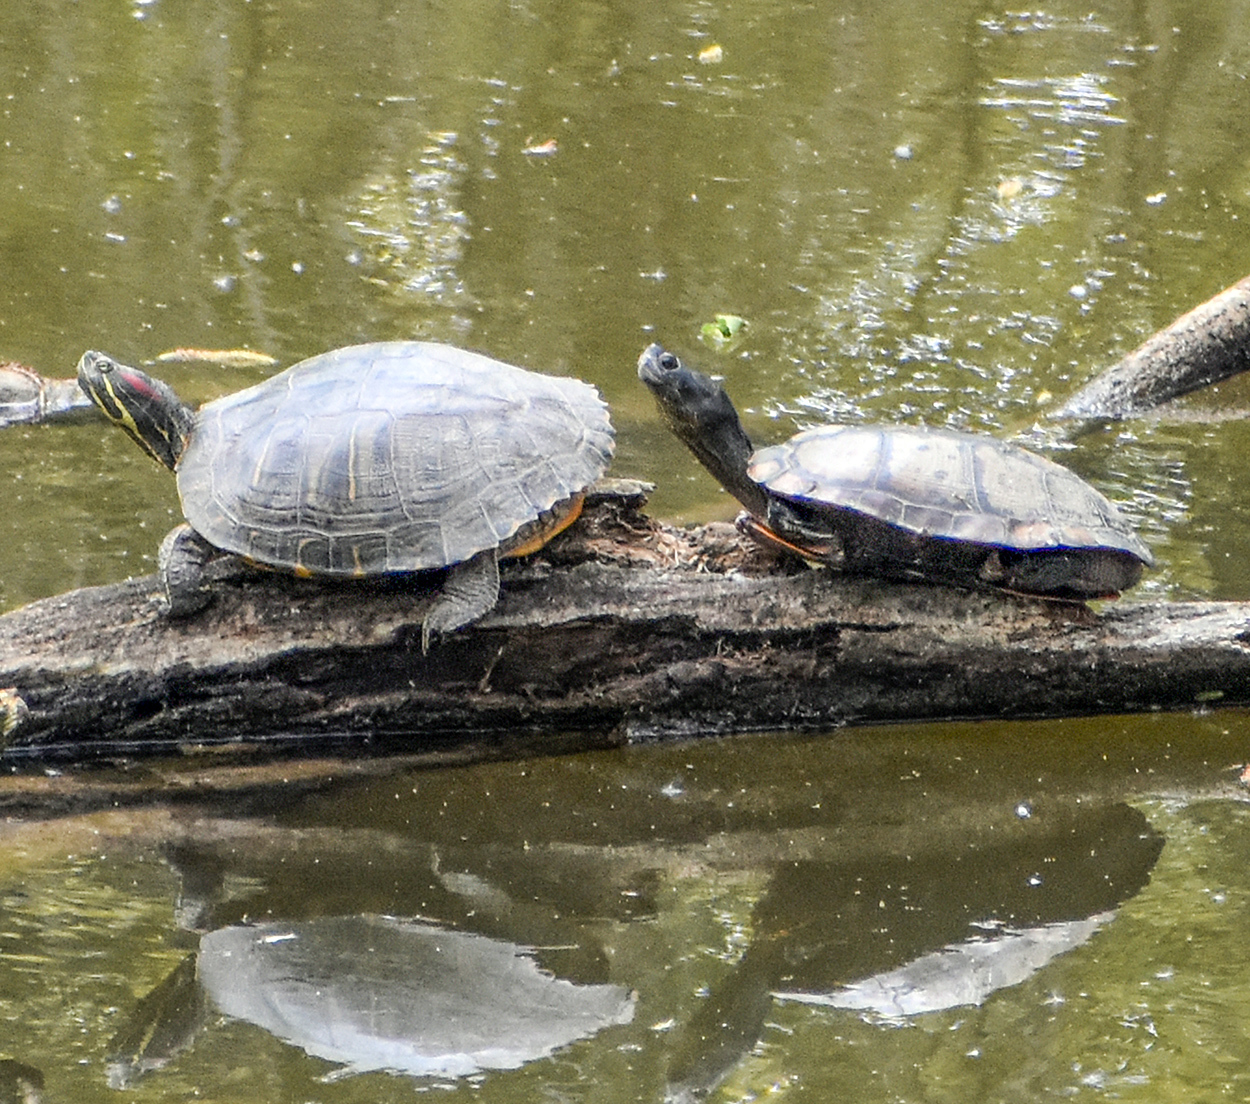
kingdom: Animalia
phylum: Chordata
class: Testudines
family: Emydidae
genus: Trachemys
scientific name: Trachemys scripta
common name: Slider
